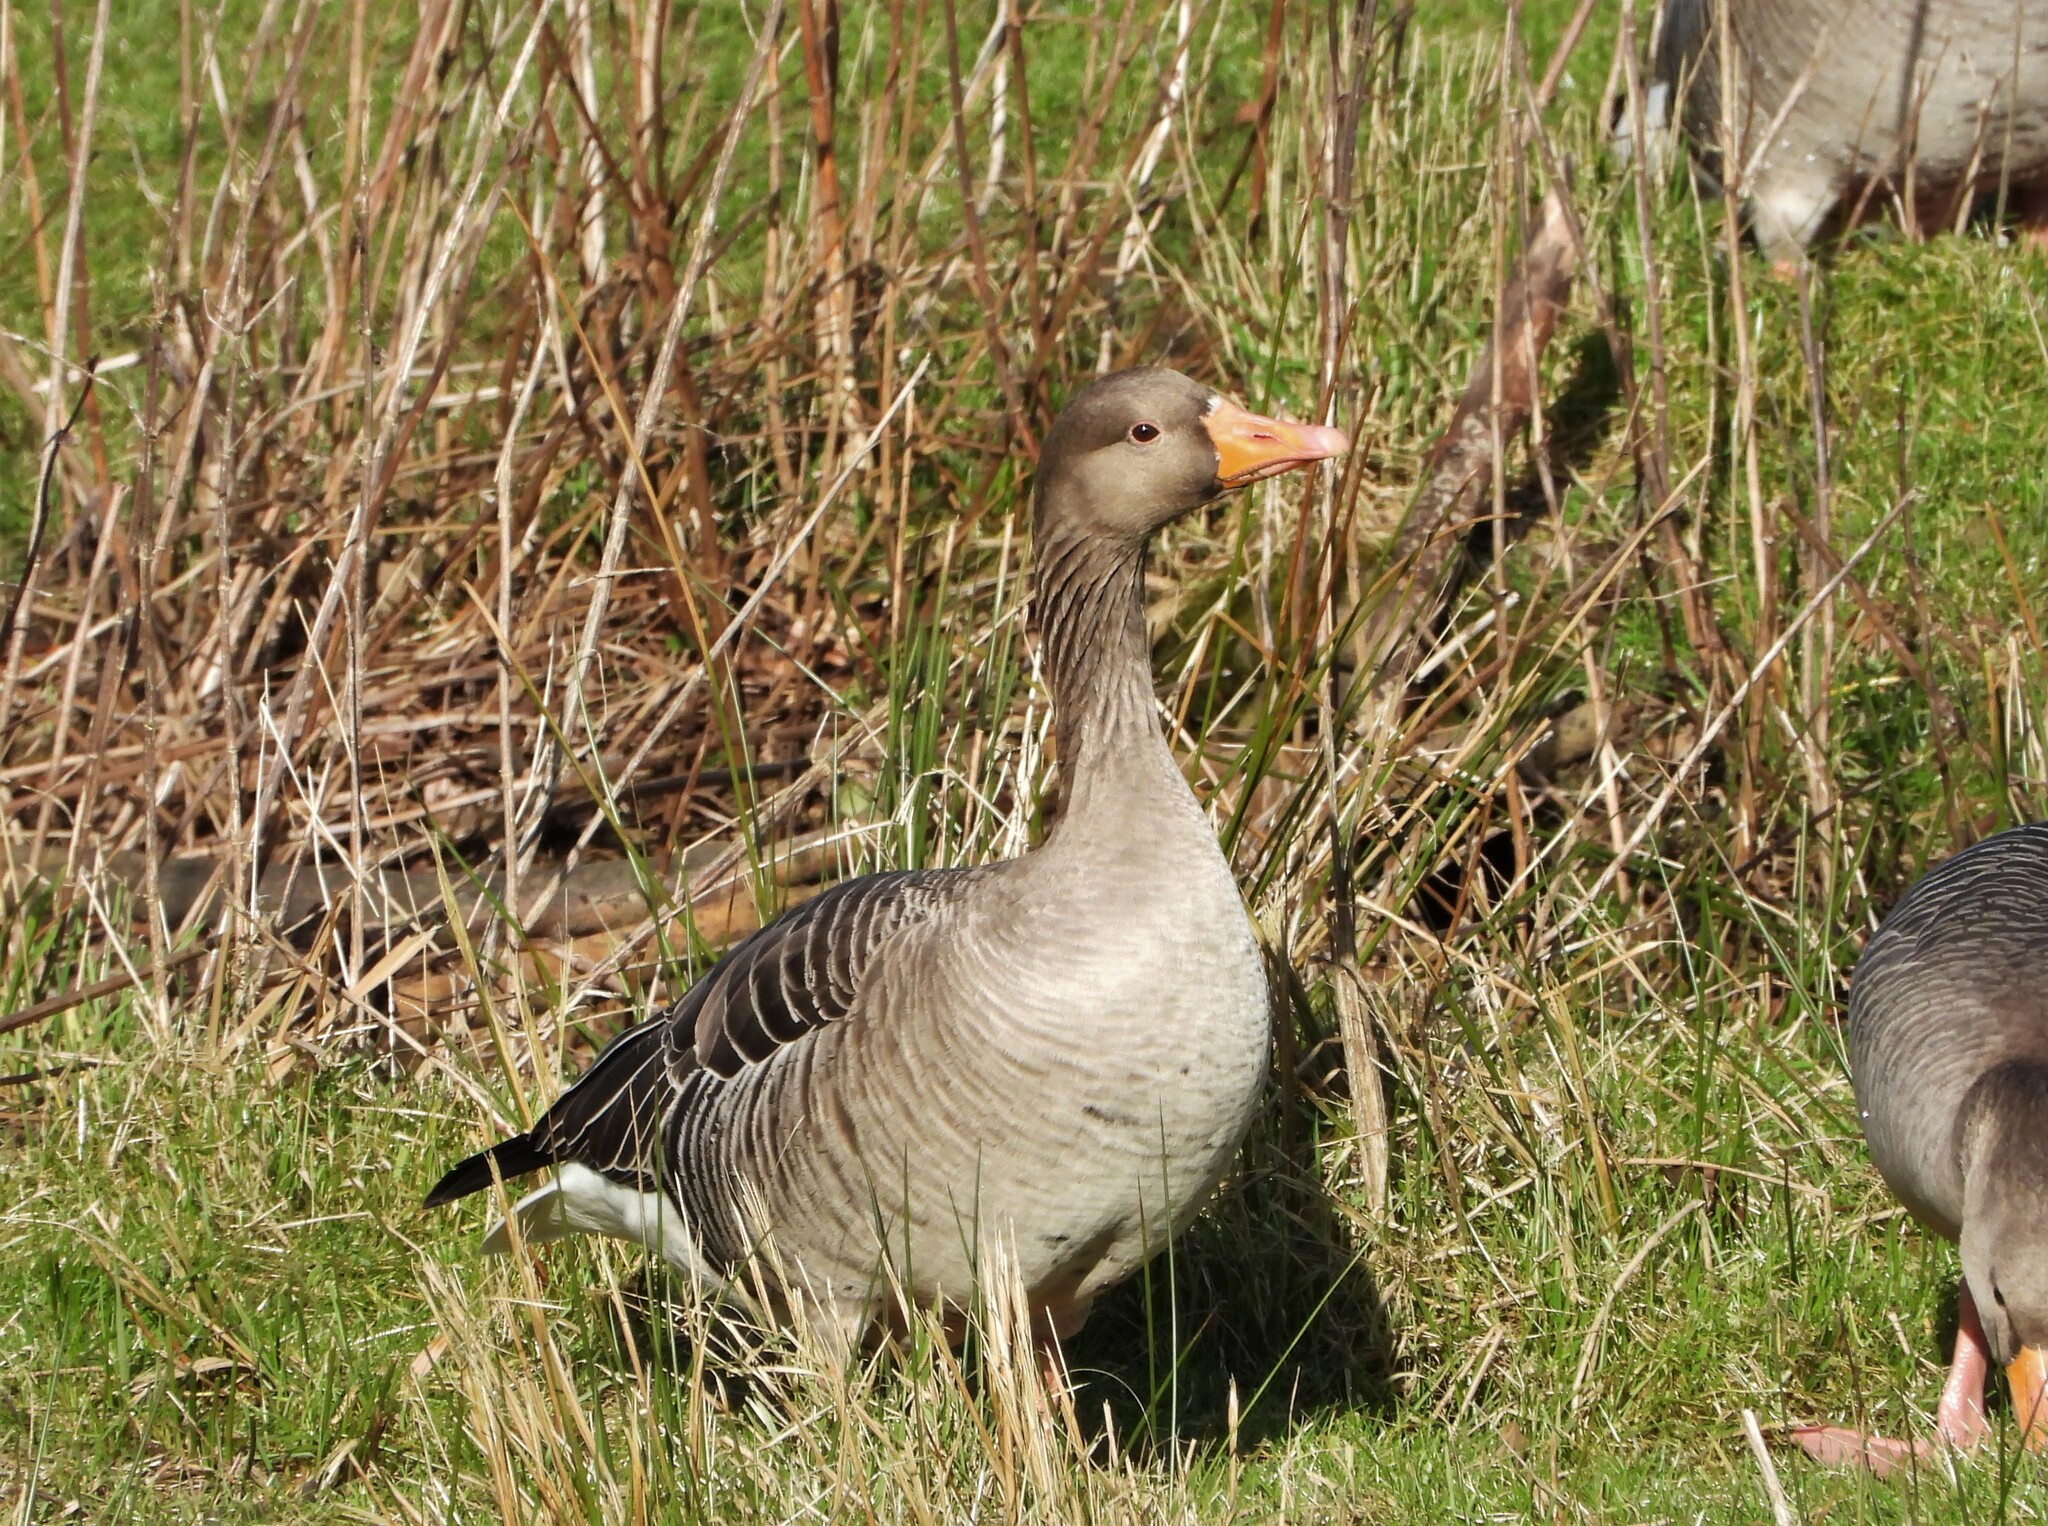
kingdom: Animalia
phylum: Chordata
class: Aves
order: Anseriformes
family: Anatidae
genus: Anser
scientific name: Anser anser
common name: Greylag goose
